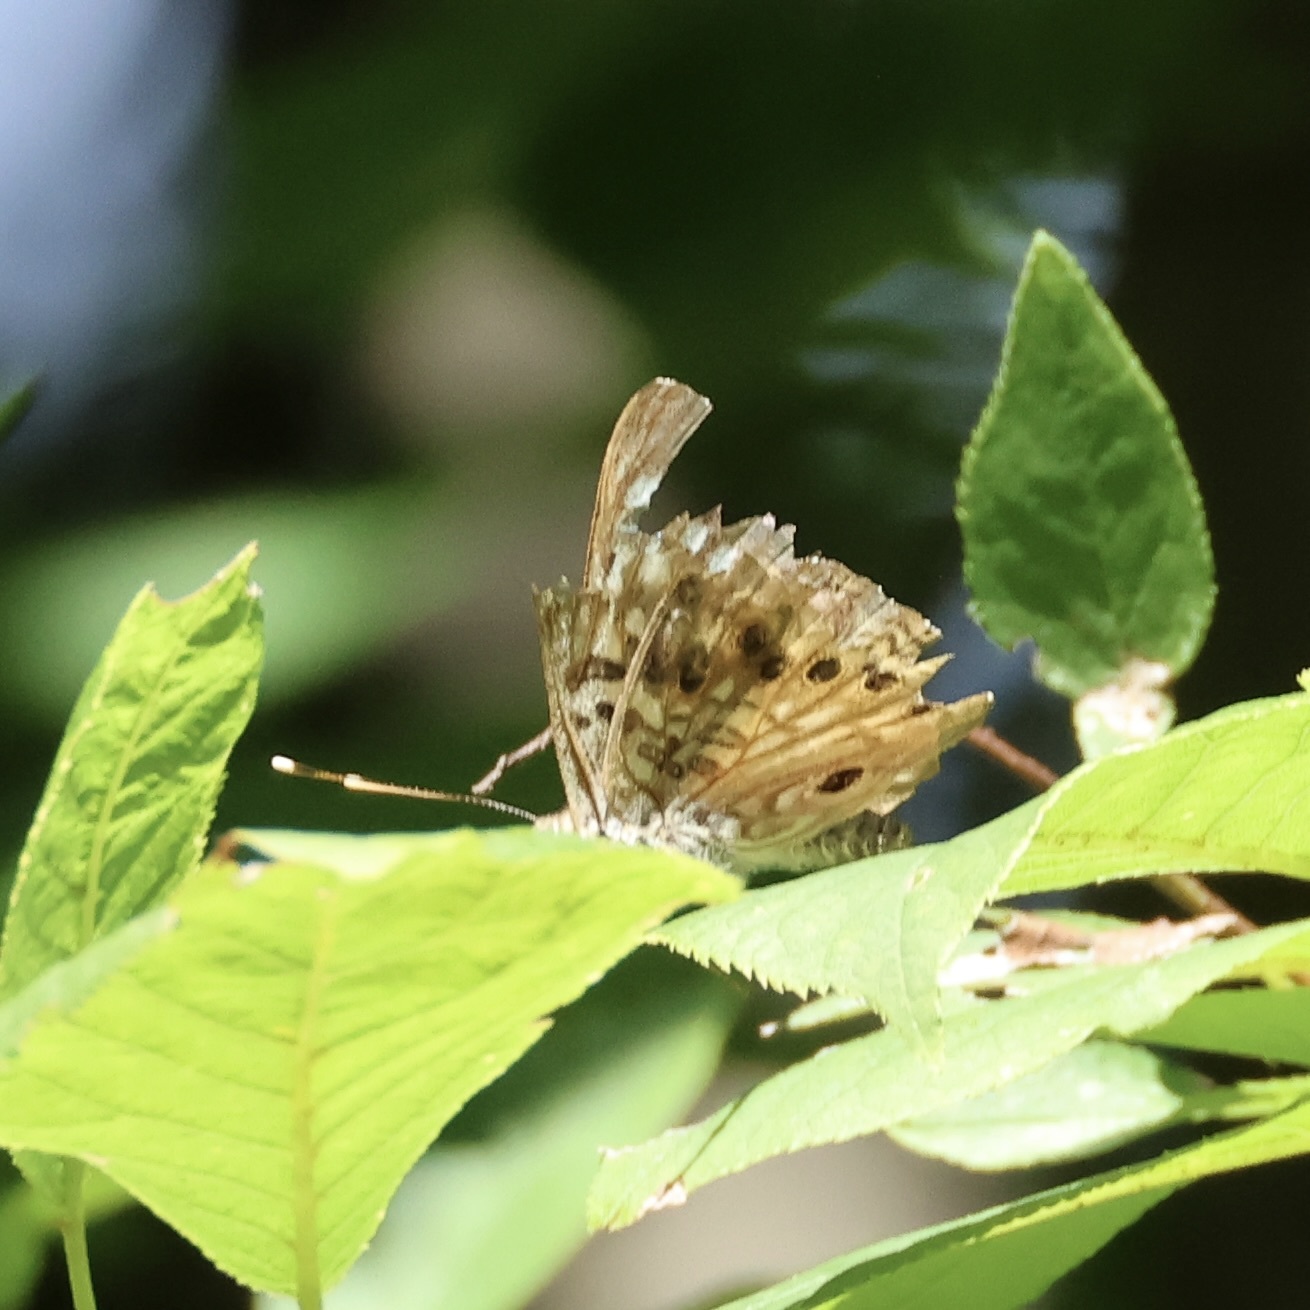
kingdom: Animalia
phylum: Arthropoda
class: Insecta
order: Lepidoptera
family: Nymphalidae
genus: Asterocampa
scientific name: Asterocampa celtis
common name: Hackberry emperor
